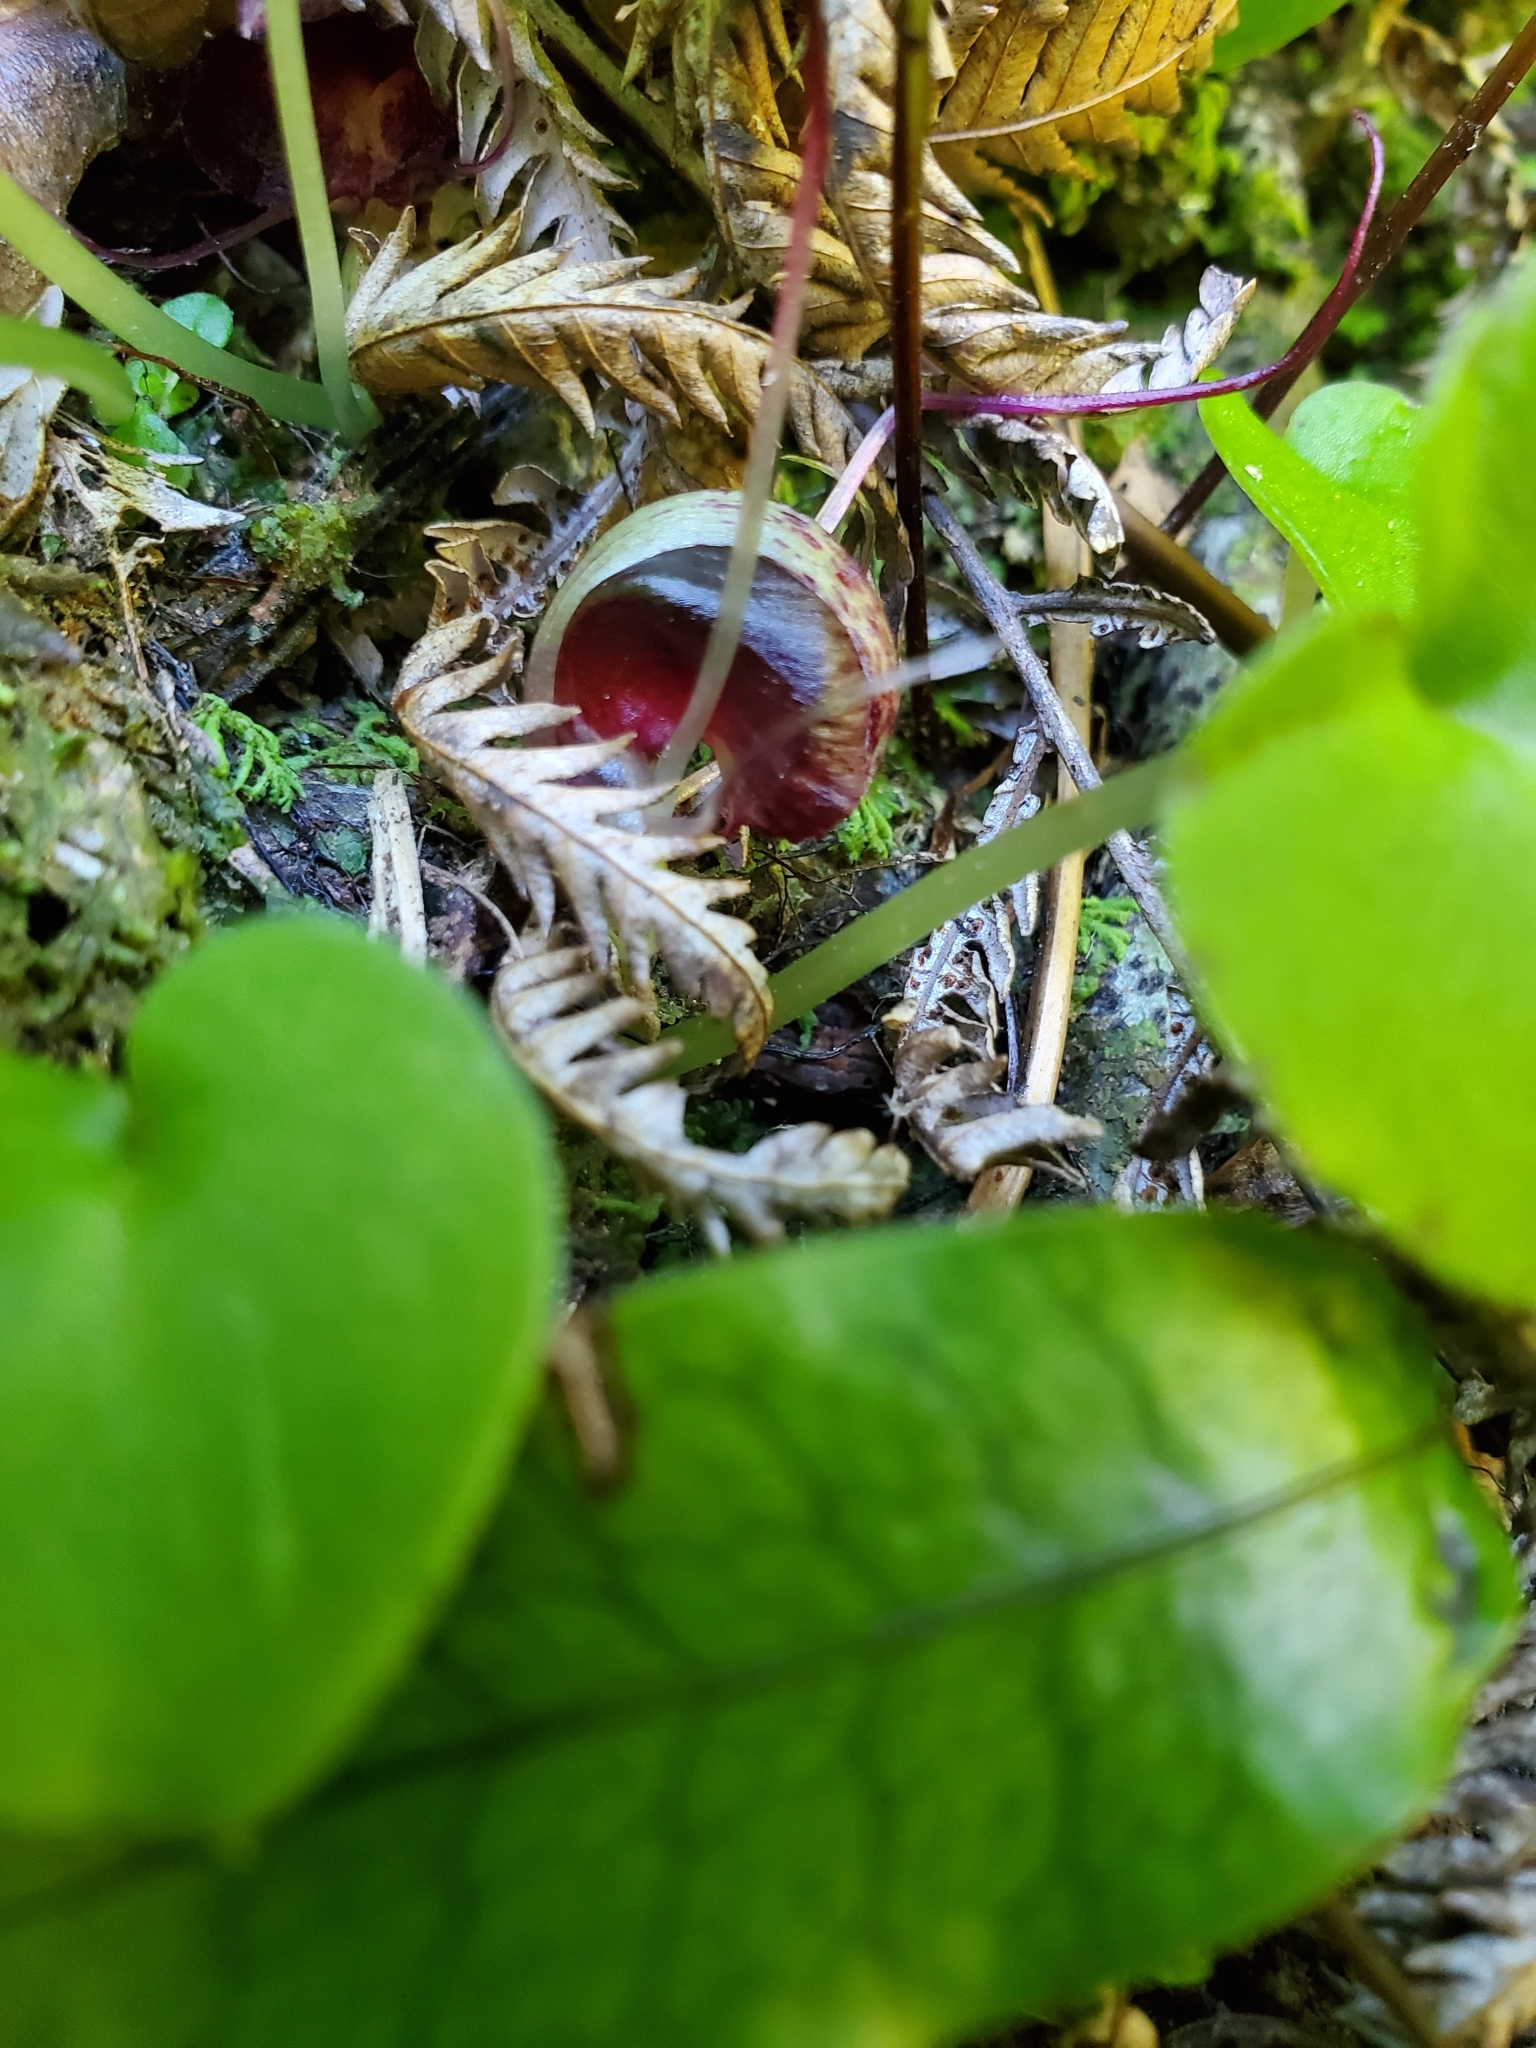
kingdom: Plantae
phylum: Tracheophyta
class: Liliopsida
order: Asparagales
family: Orchidaceae
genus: Corybas
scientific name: Corybas macranthus
